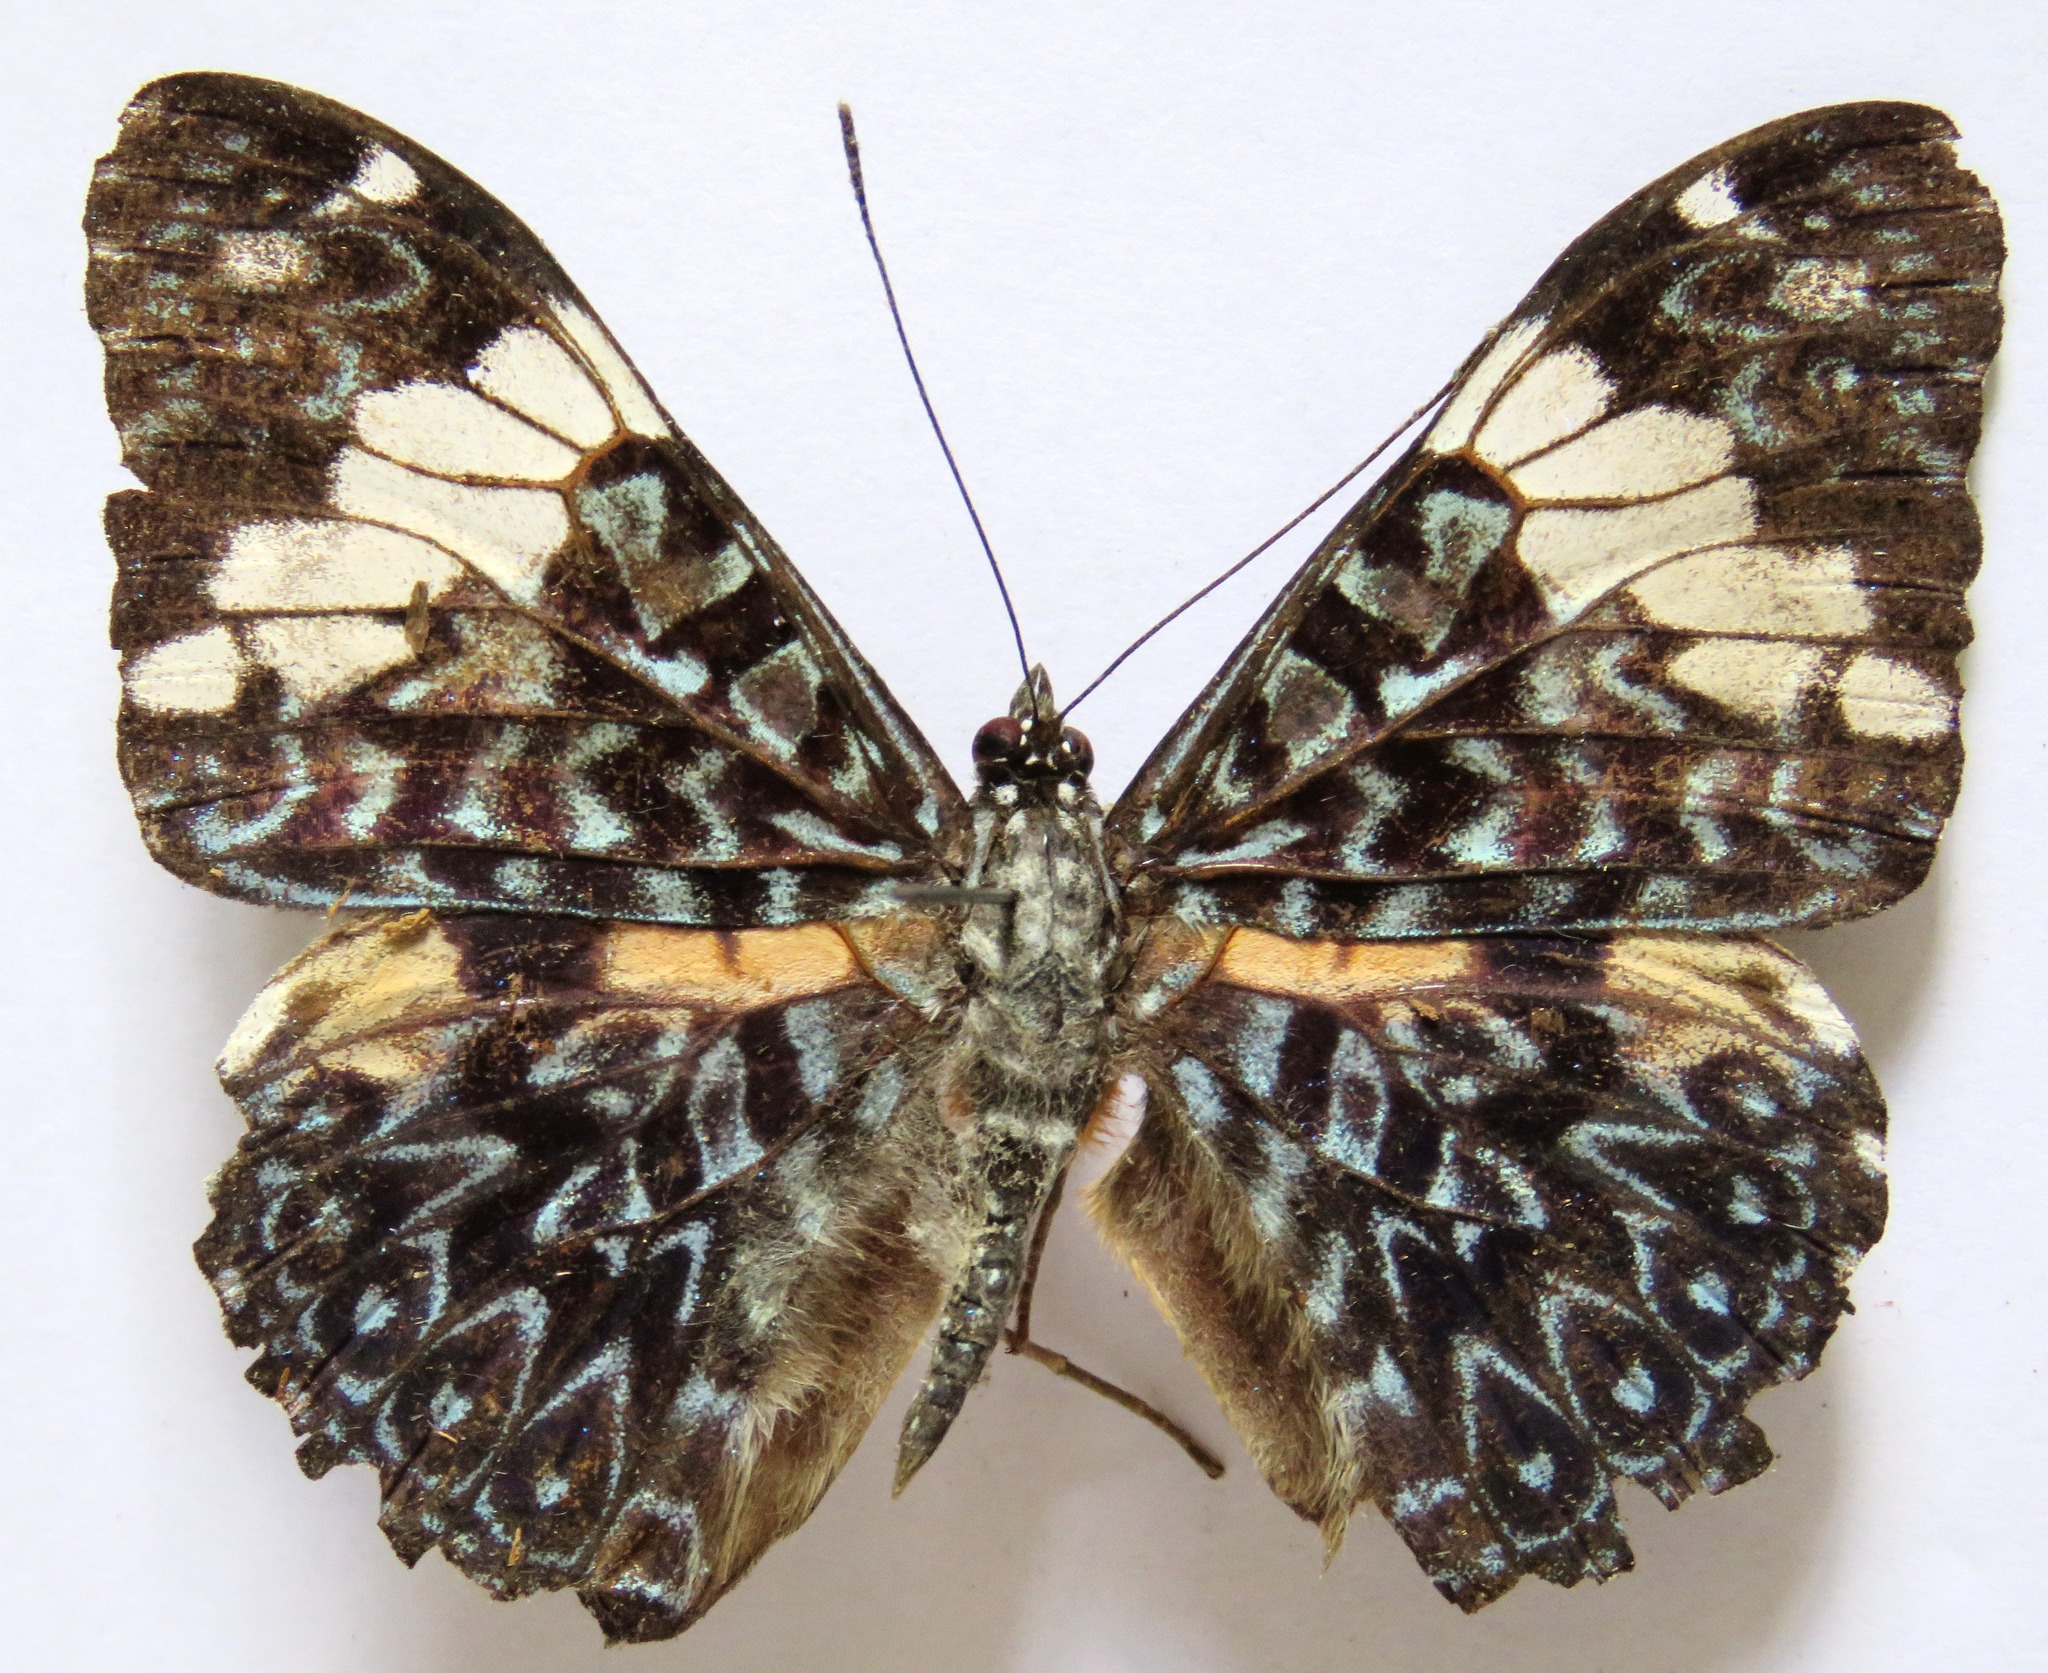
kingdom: Animalia
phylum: Arthropoda
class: Insecta
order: Lepidoptera
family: Nymphalidae
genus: Hamadryas
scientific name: Hamadryas amphinome
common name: Red cracker
